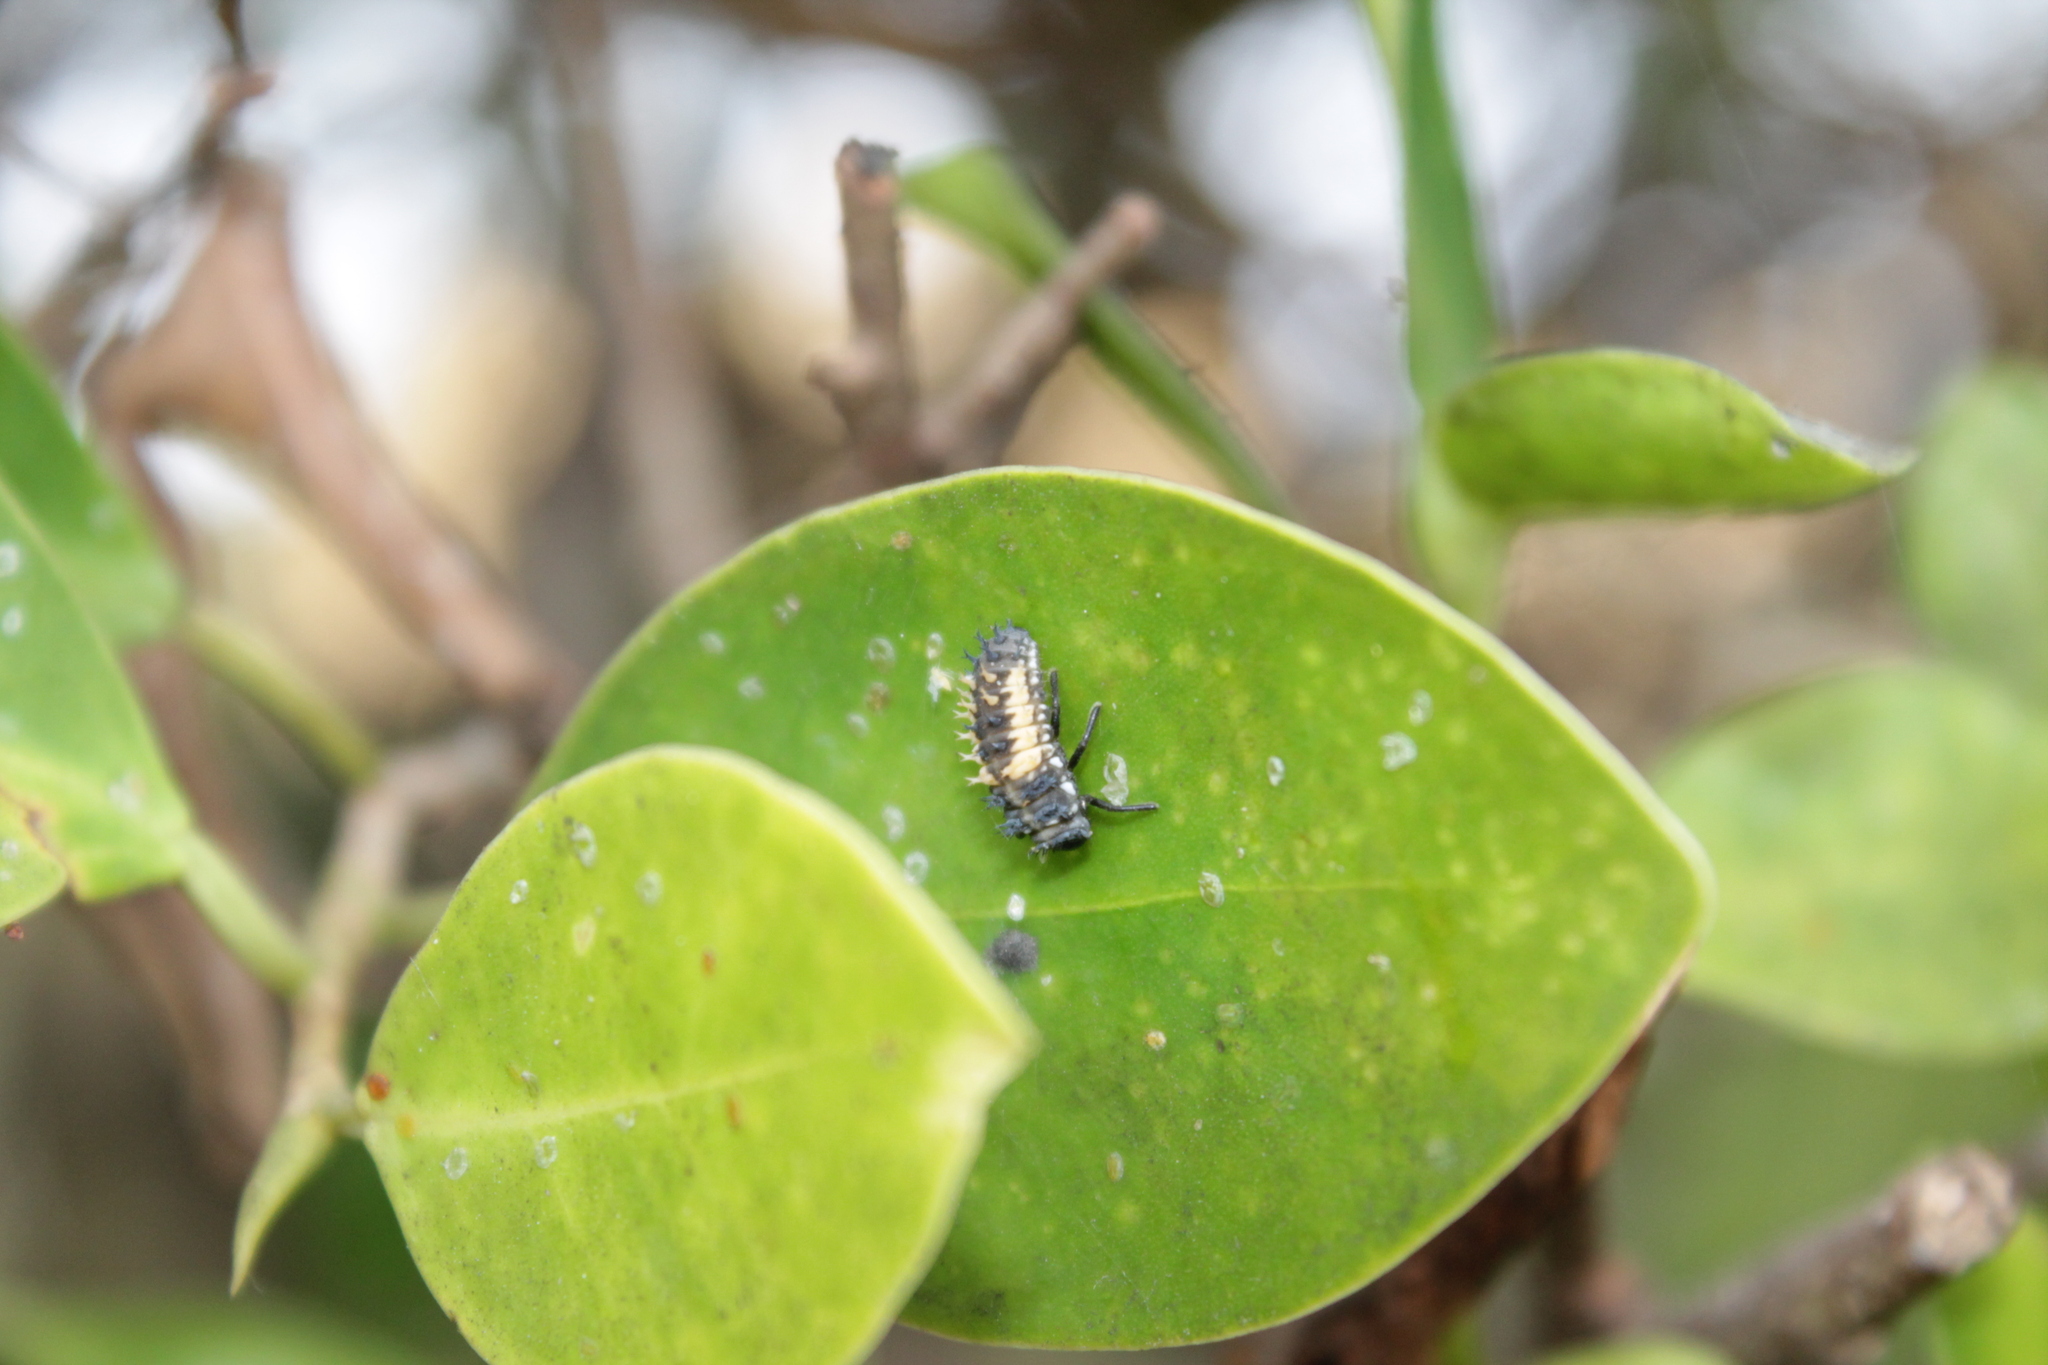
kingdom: Animalia
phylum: Arthropoda
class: Insecta
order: Coleoptera
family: Coccinellidae
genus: Harmonia
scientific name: Harmonia axyridis
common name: Harlequin ladybird
